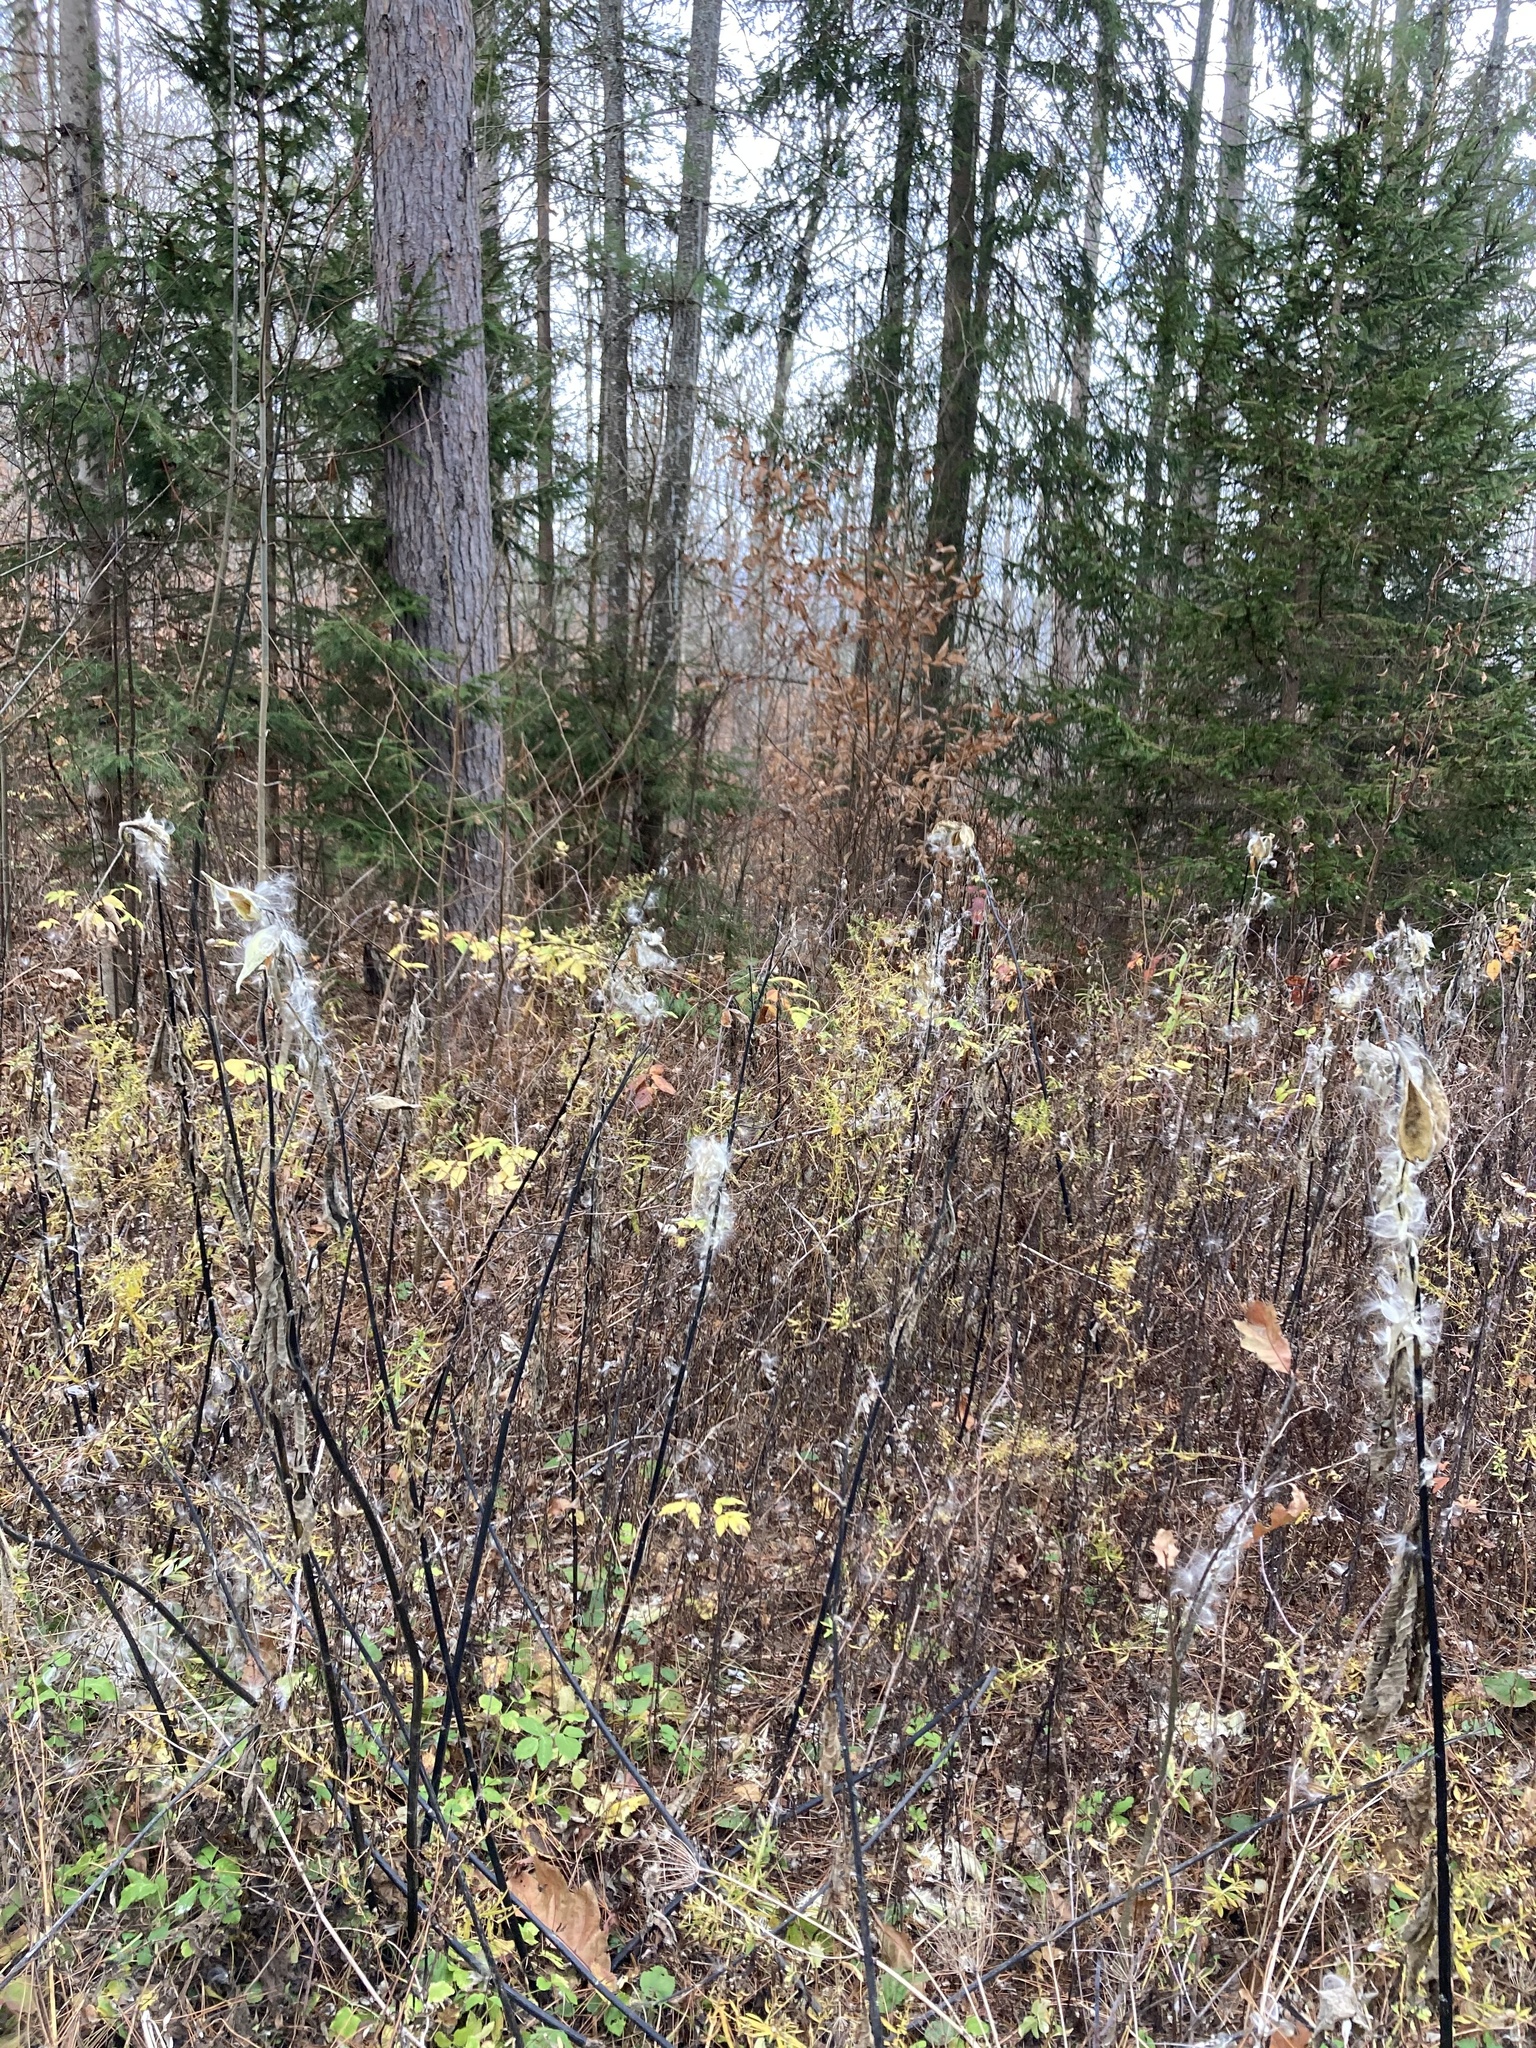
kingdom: Plantae
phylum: Tracheophyta
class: Magnoliopsida
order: Gentianales
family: Apocynaceae
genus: Asclepias
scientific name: Asclepias syriaca
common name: Common milkweed
